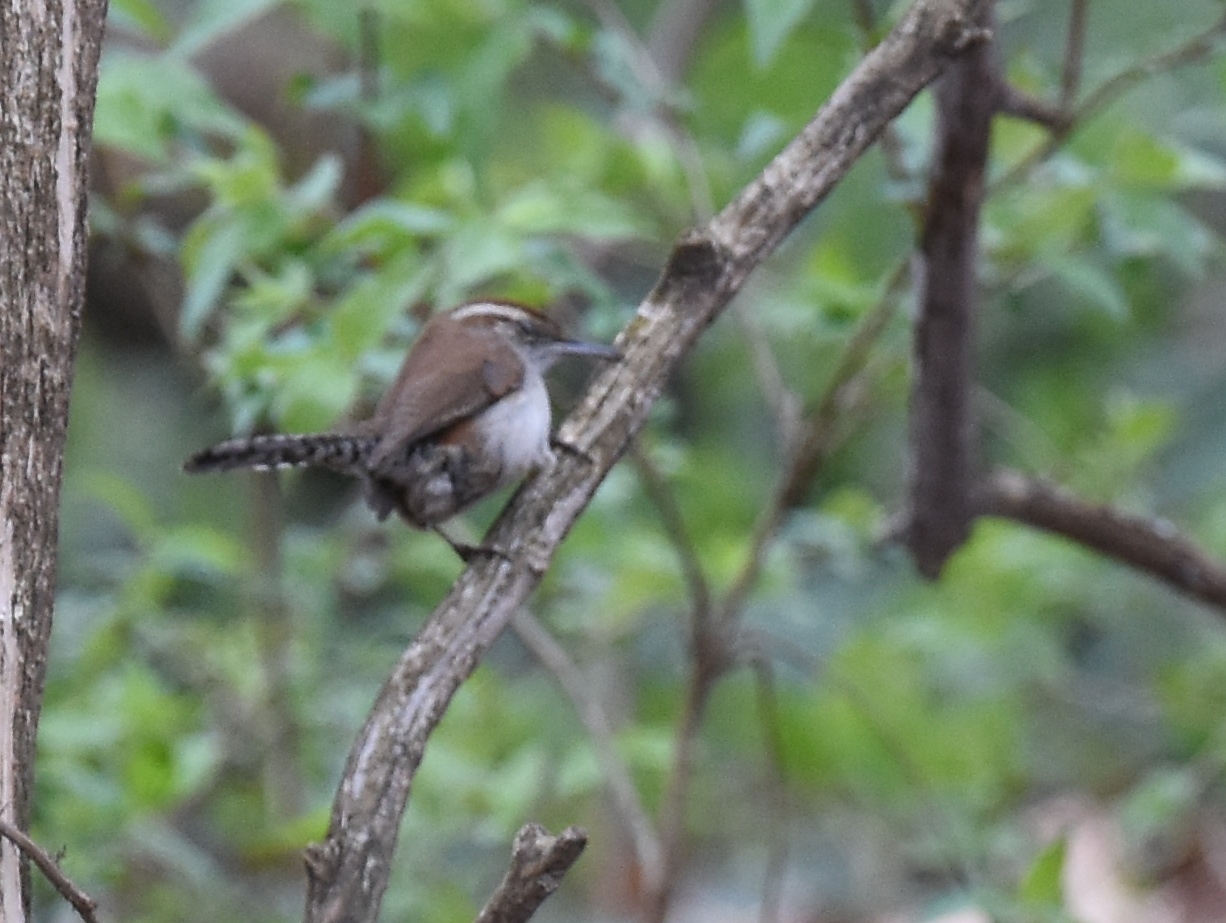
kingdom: Animalia
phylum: Chordata
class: Aves
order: Passeriformes
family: Troglodytidae
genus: Thryomanes
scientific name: Thryomanes bewickii
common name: Bewick's wren
